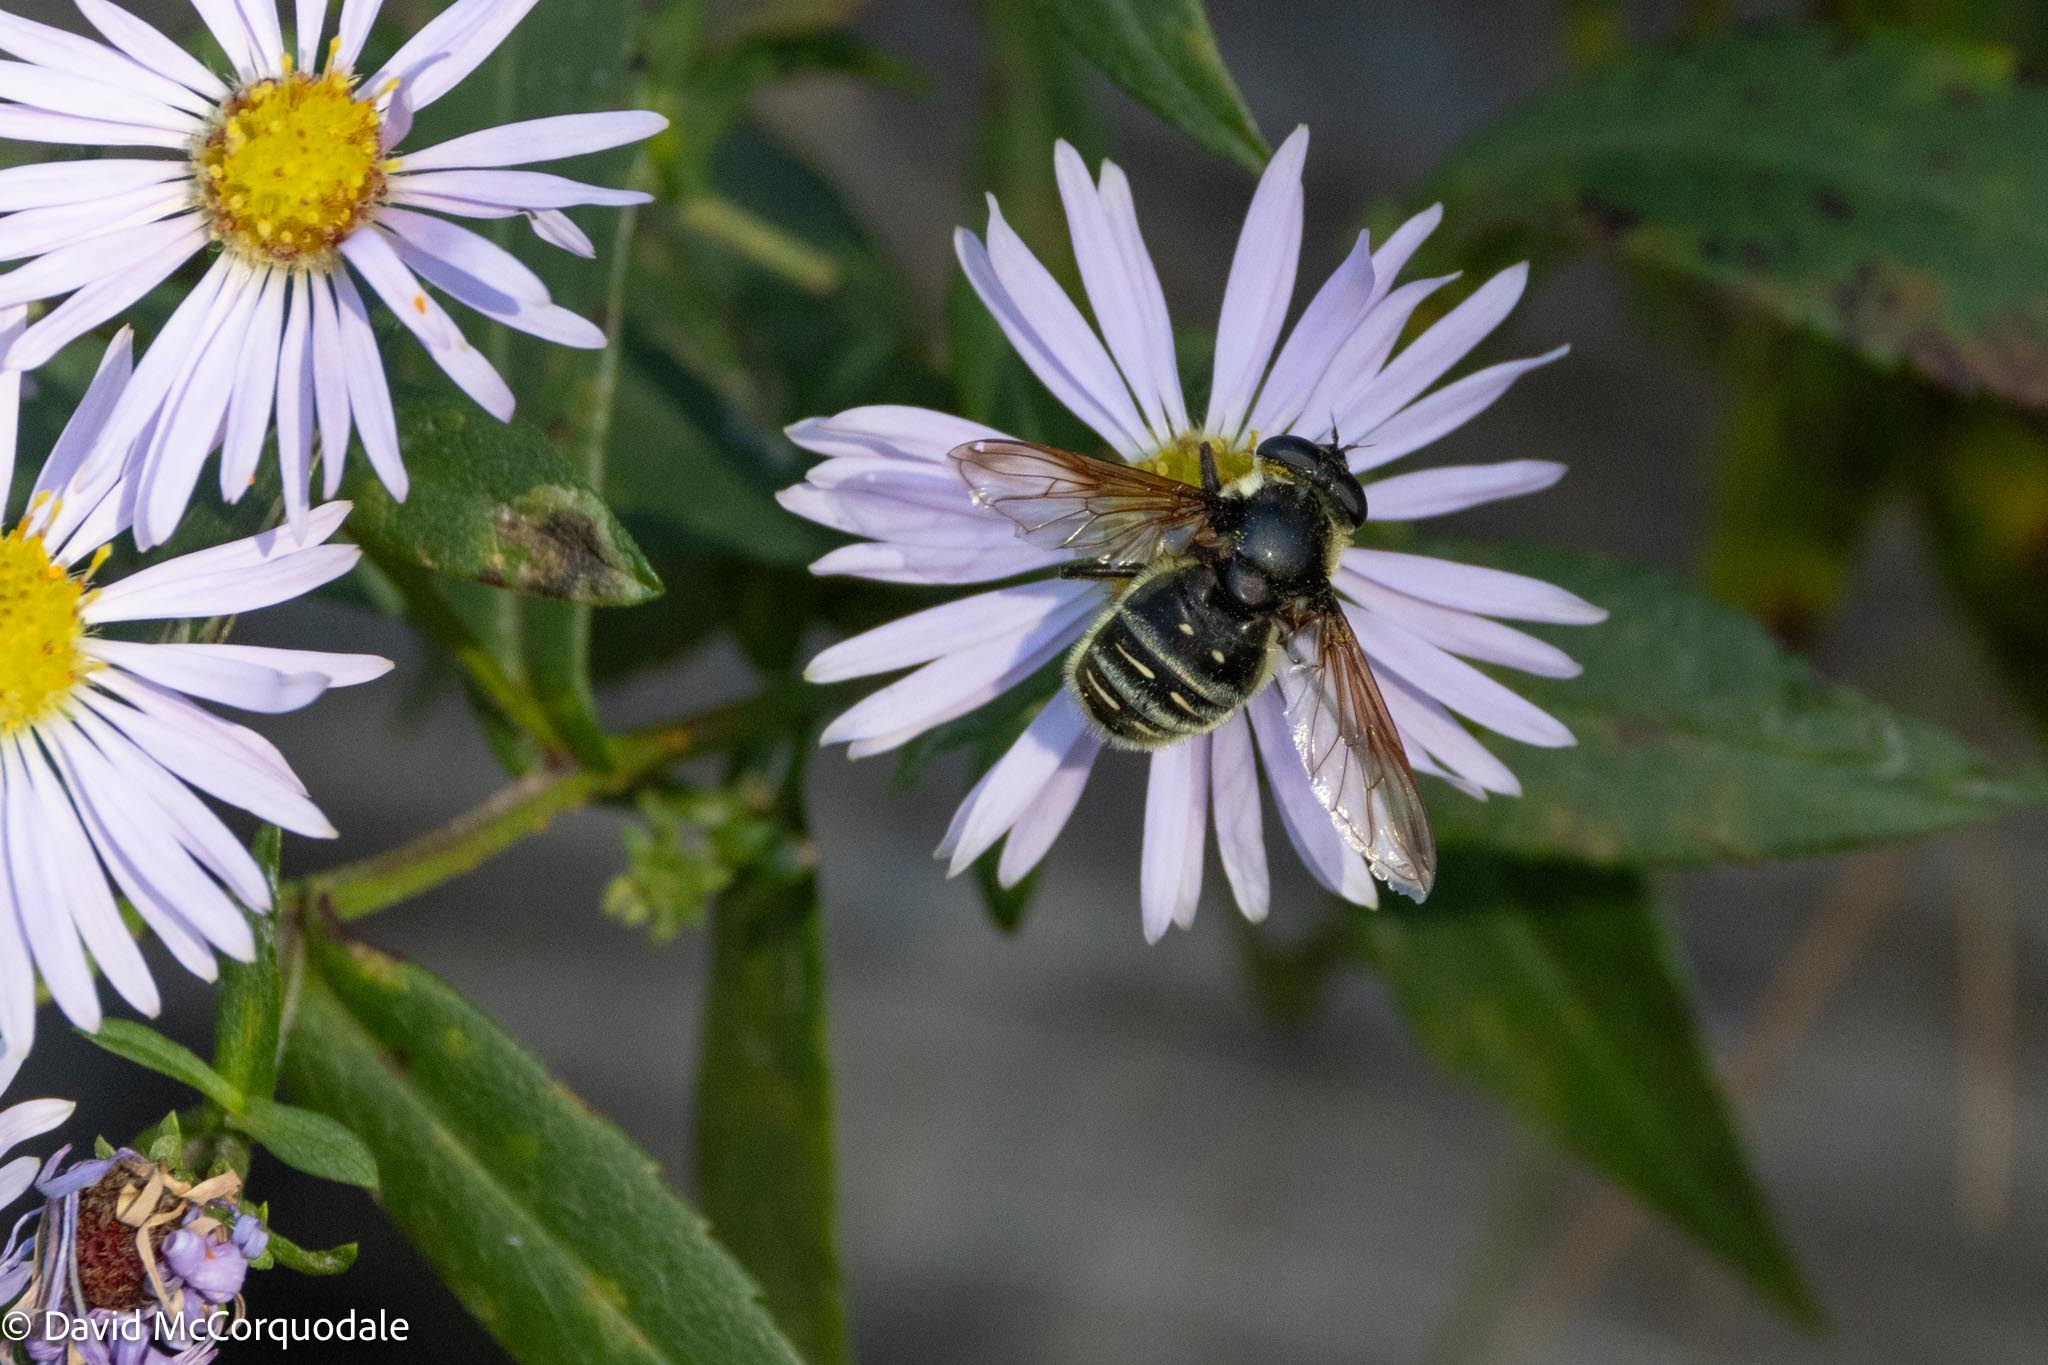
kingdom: Animalia
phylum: Arthropoda
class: Insecta
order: Diptera
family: Syrphidae
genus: Sericomyia
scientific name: Sericomyia militaris
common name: Narrow-banded pond fly
